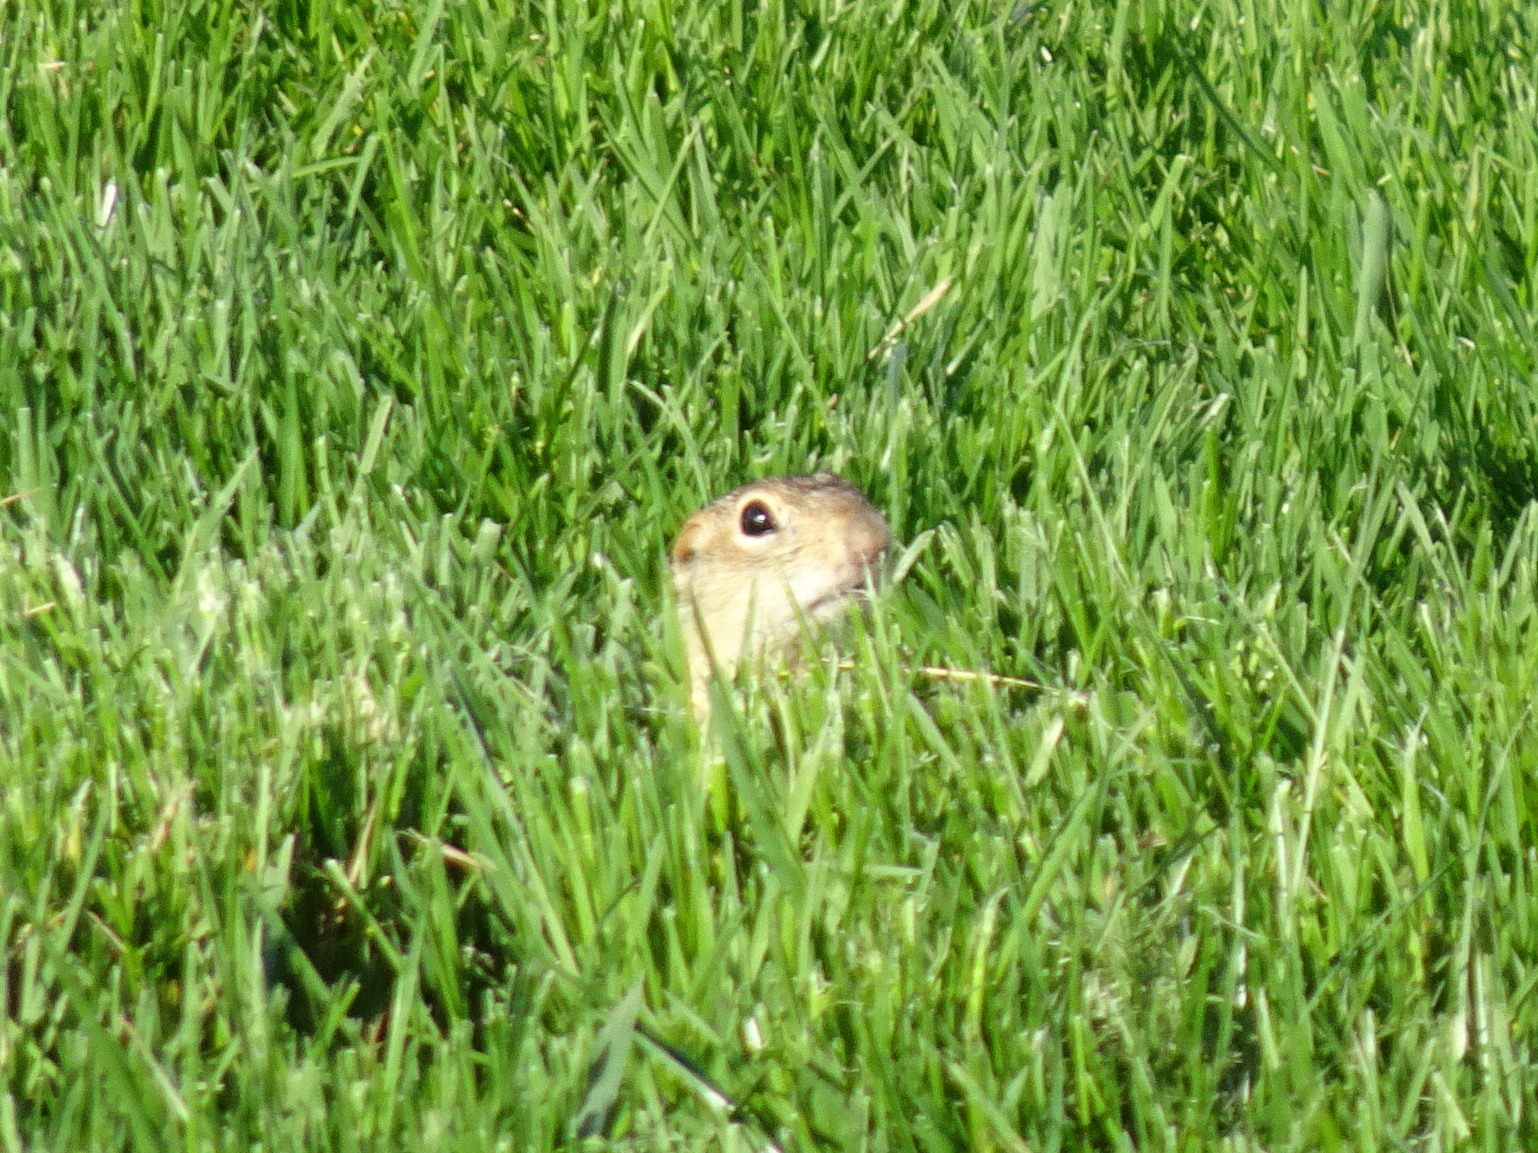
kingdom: Animalia
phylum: Chordata
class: Mammalia
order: Rodentia
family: Sciuridae
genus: Ictidomys
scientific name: Ictidomys tridecemlineatus
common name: Thirteen-lined ground squirrel
